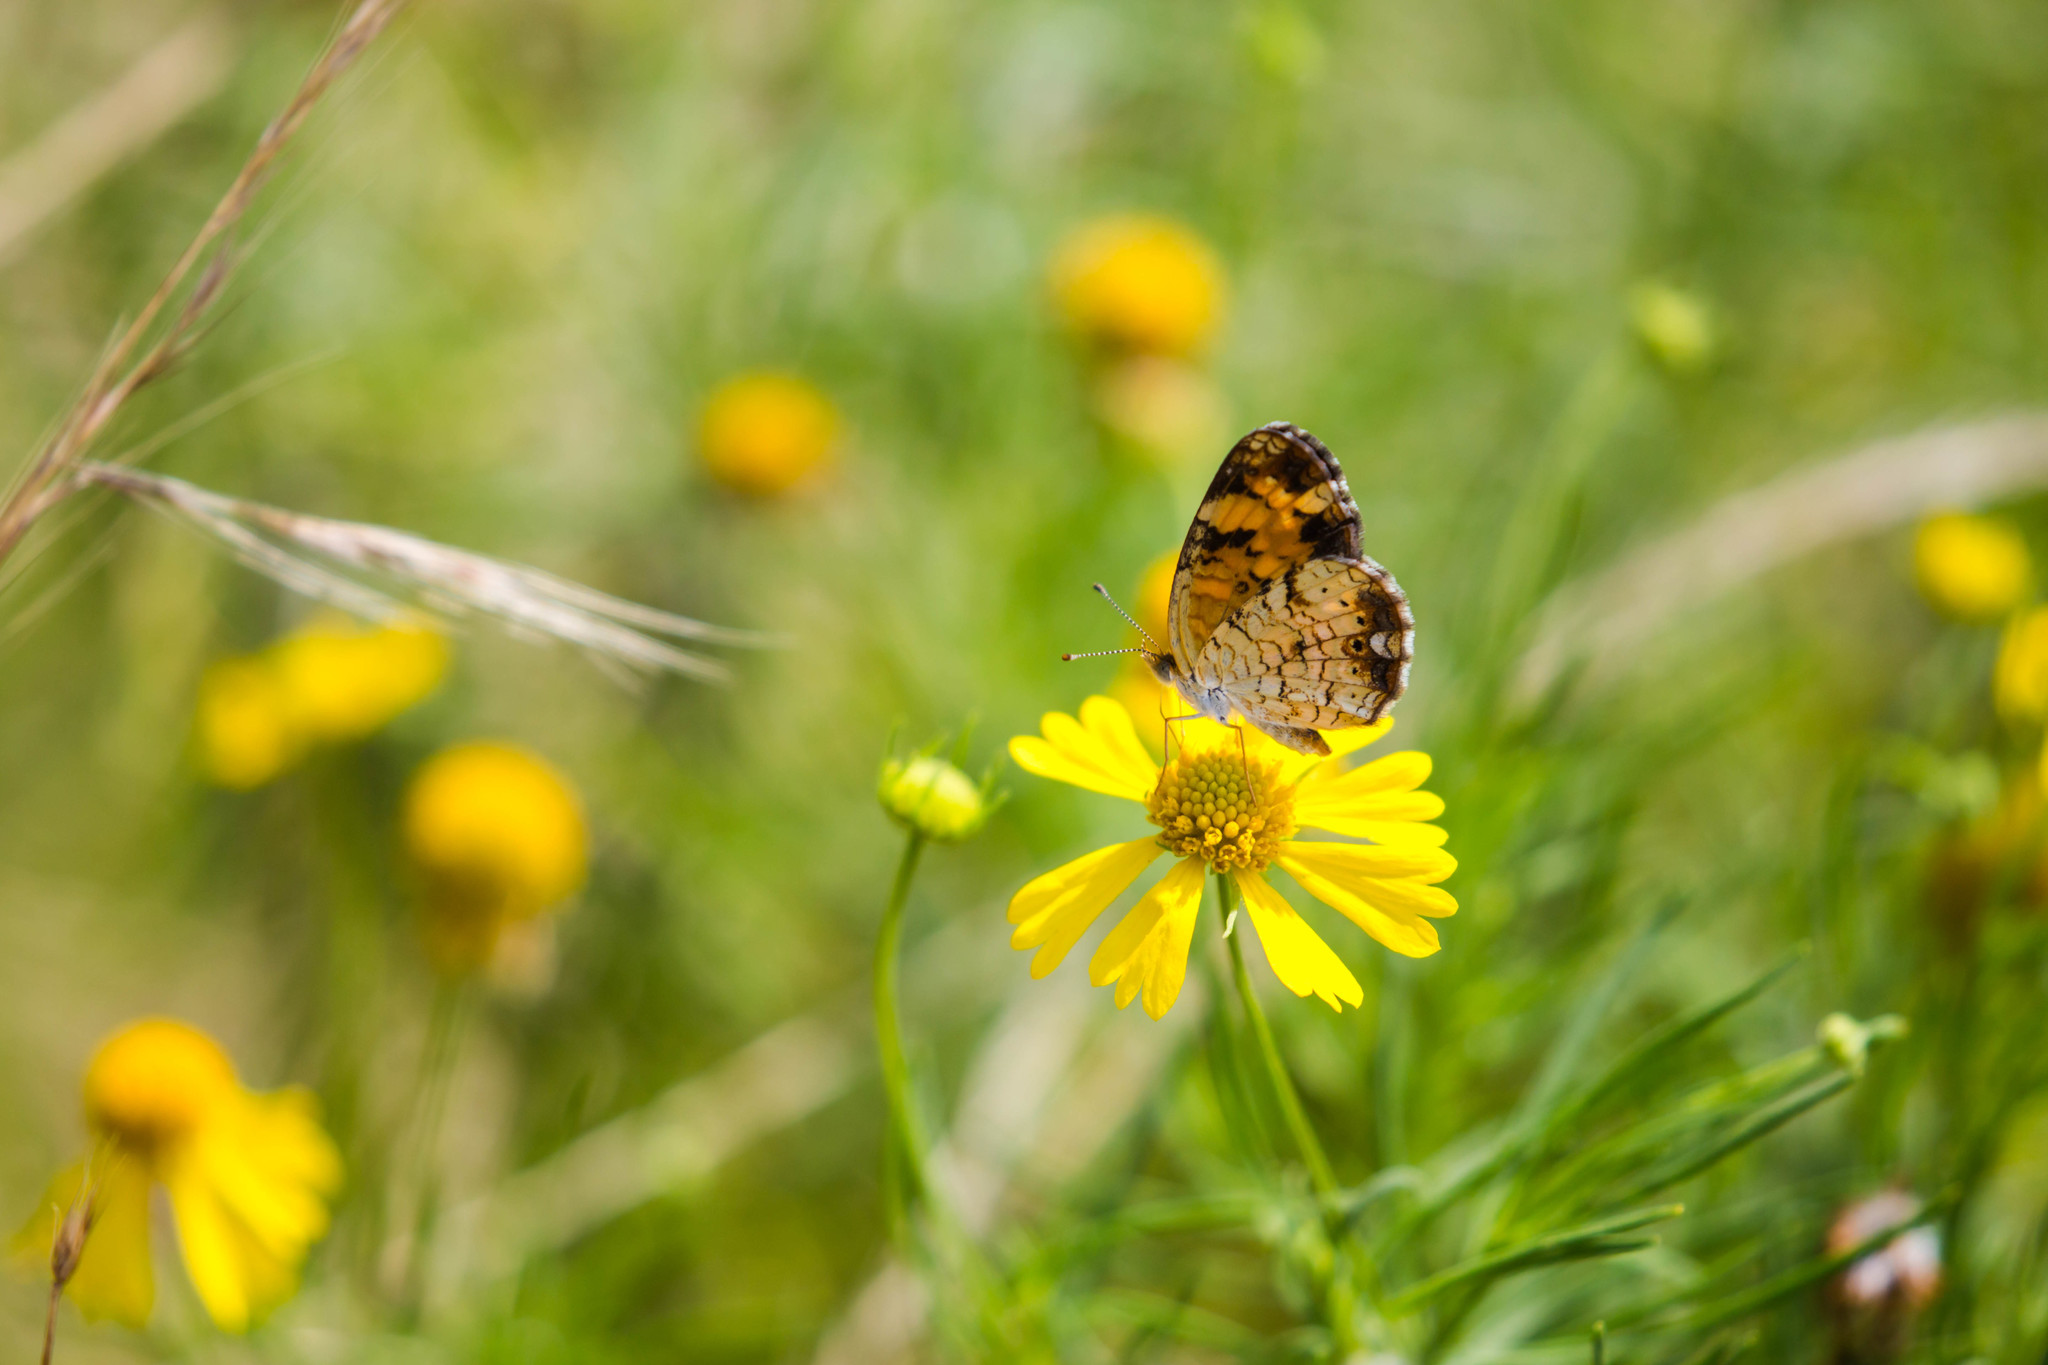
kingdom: Animalia
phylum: Arthropoda
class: Insecta
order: Lepidoptera
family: Nymphalidae
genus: Phyciodes
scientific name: Phyciodes tharos
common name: Pearl crescent
